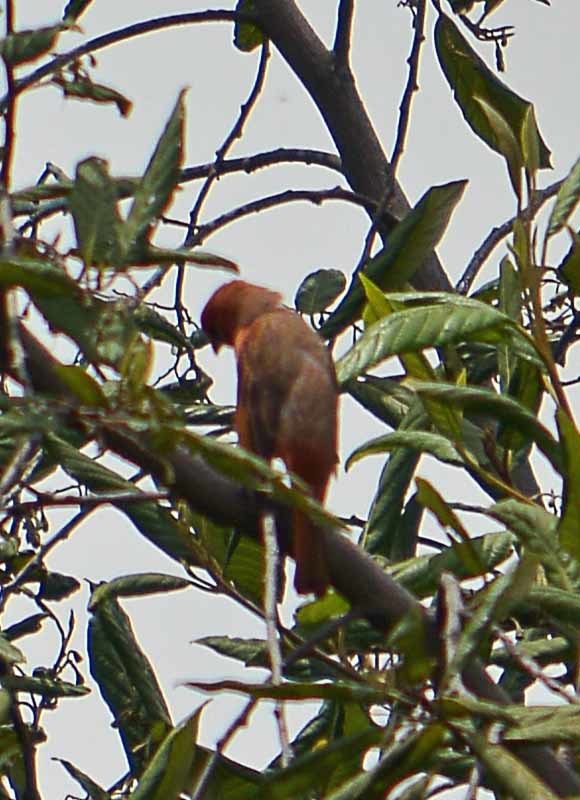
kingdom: Animalia
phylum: Chordata
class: Aves
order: Passeriformes
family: Cardinalidae
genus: Piranga
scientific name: Piranga flava
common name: Red tanager
